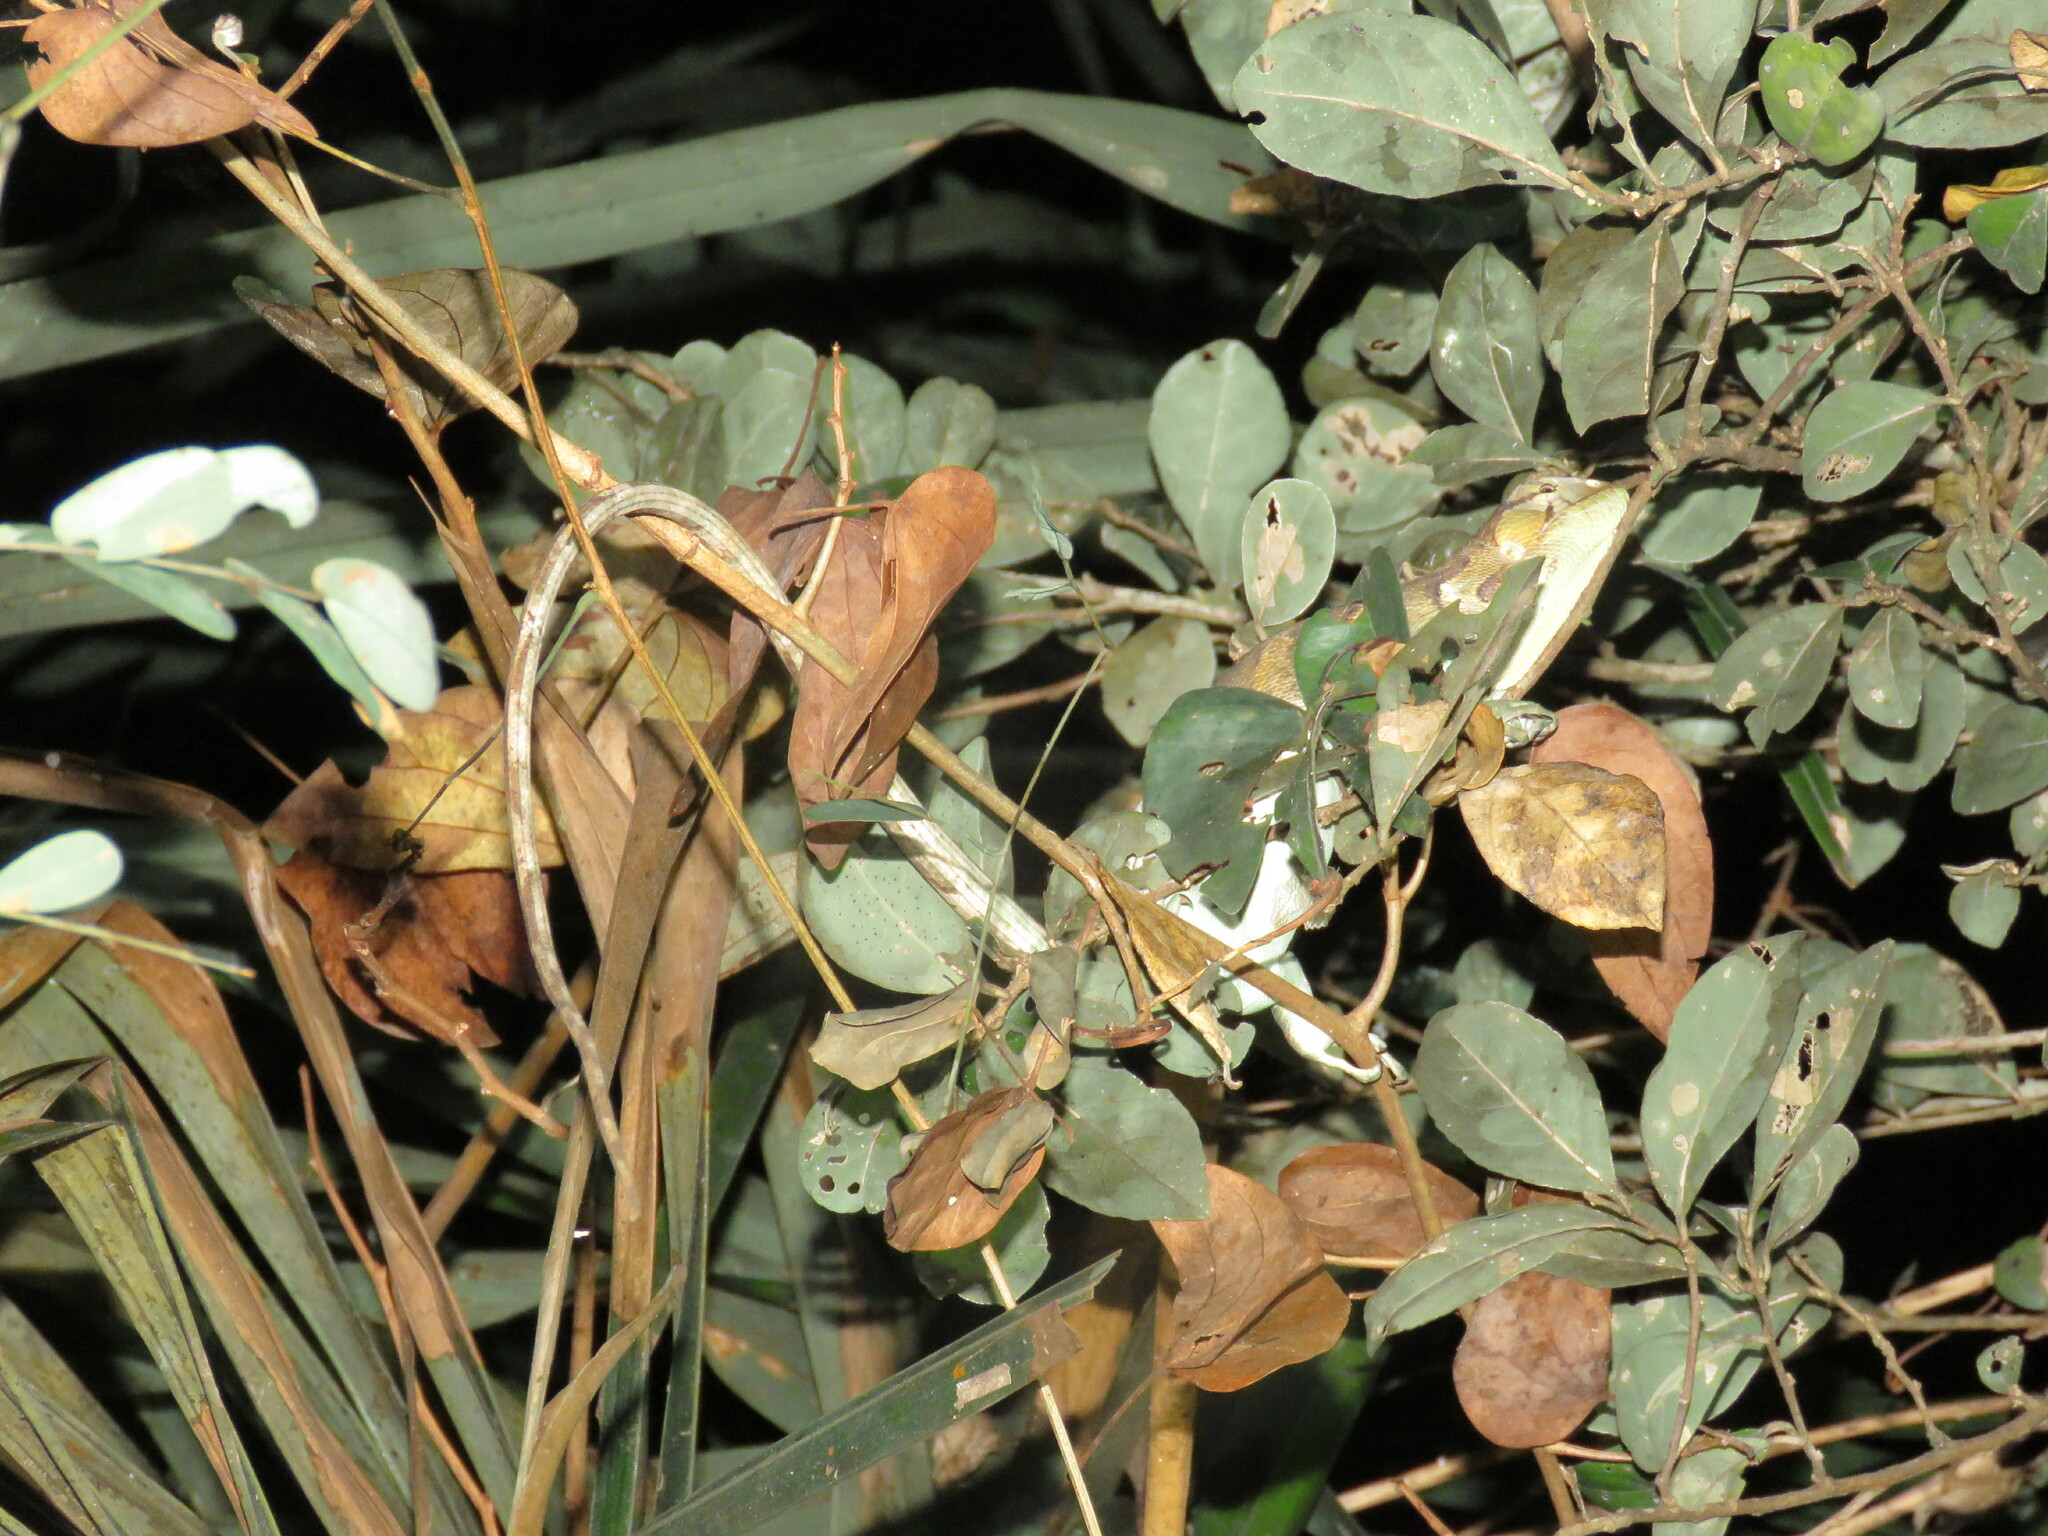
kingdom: Animalia
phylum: Chordata
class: Squamata
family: Polychrotidae
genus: Polychrus
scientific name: Polychrus liogaster
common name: Boulenger's bush anole
